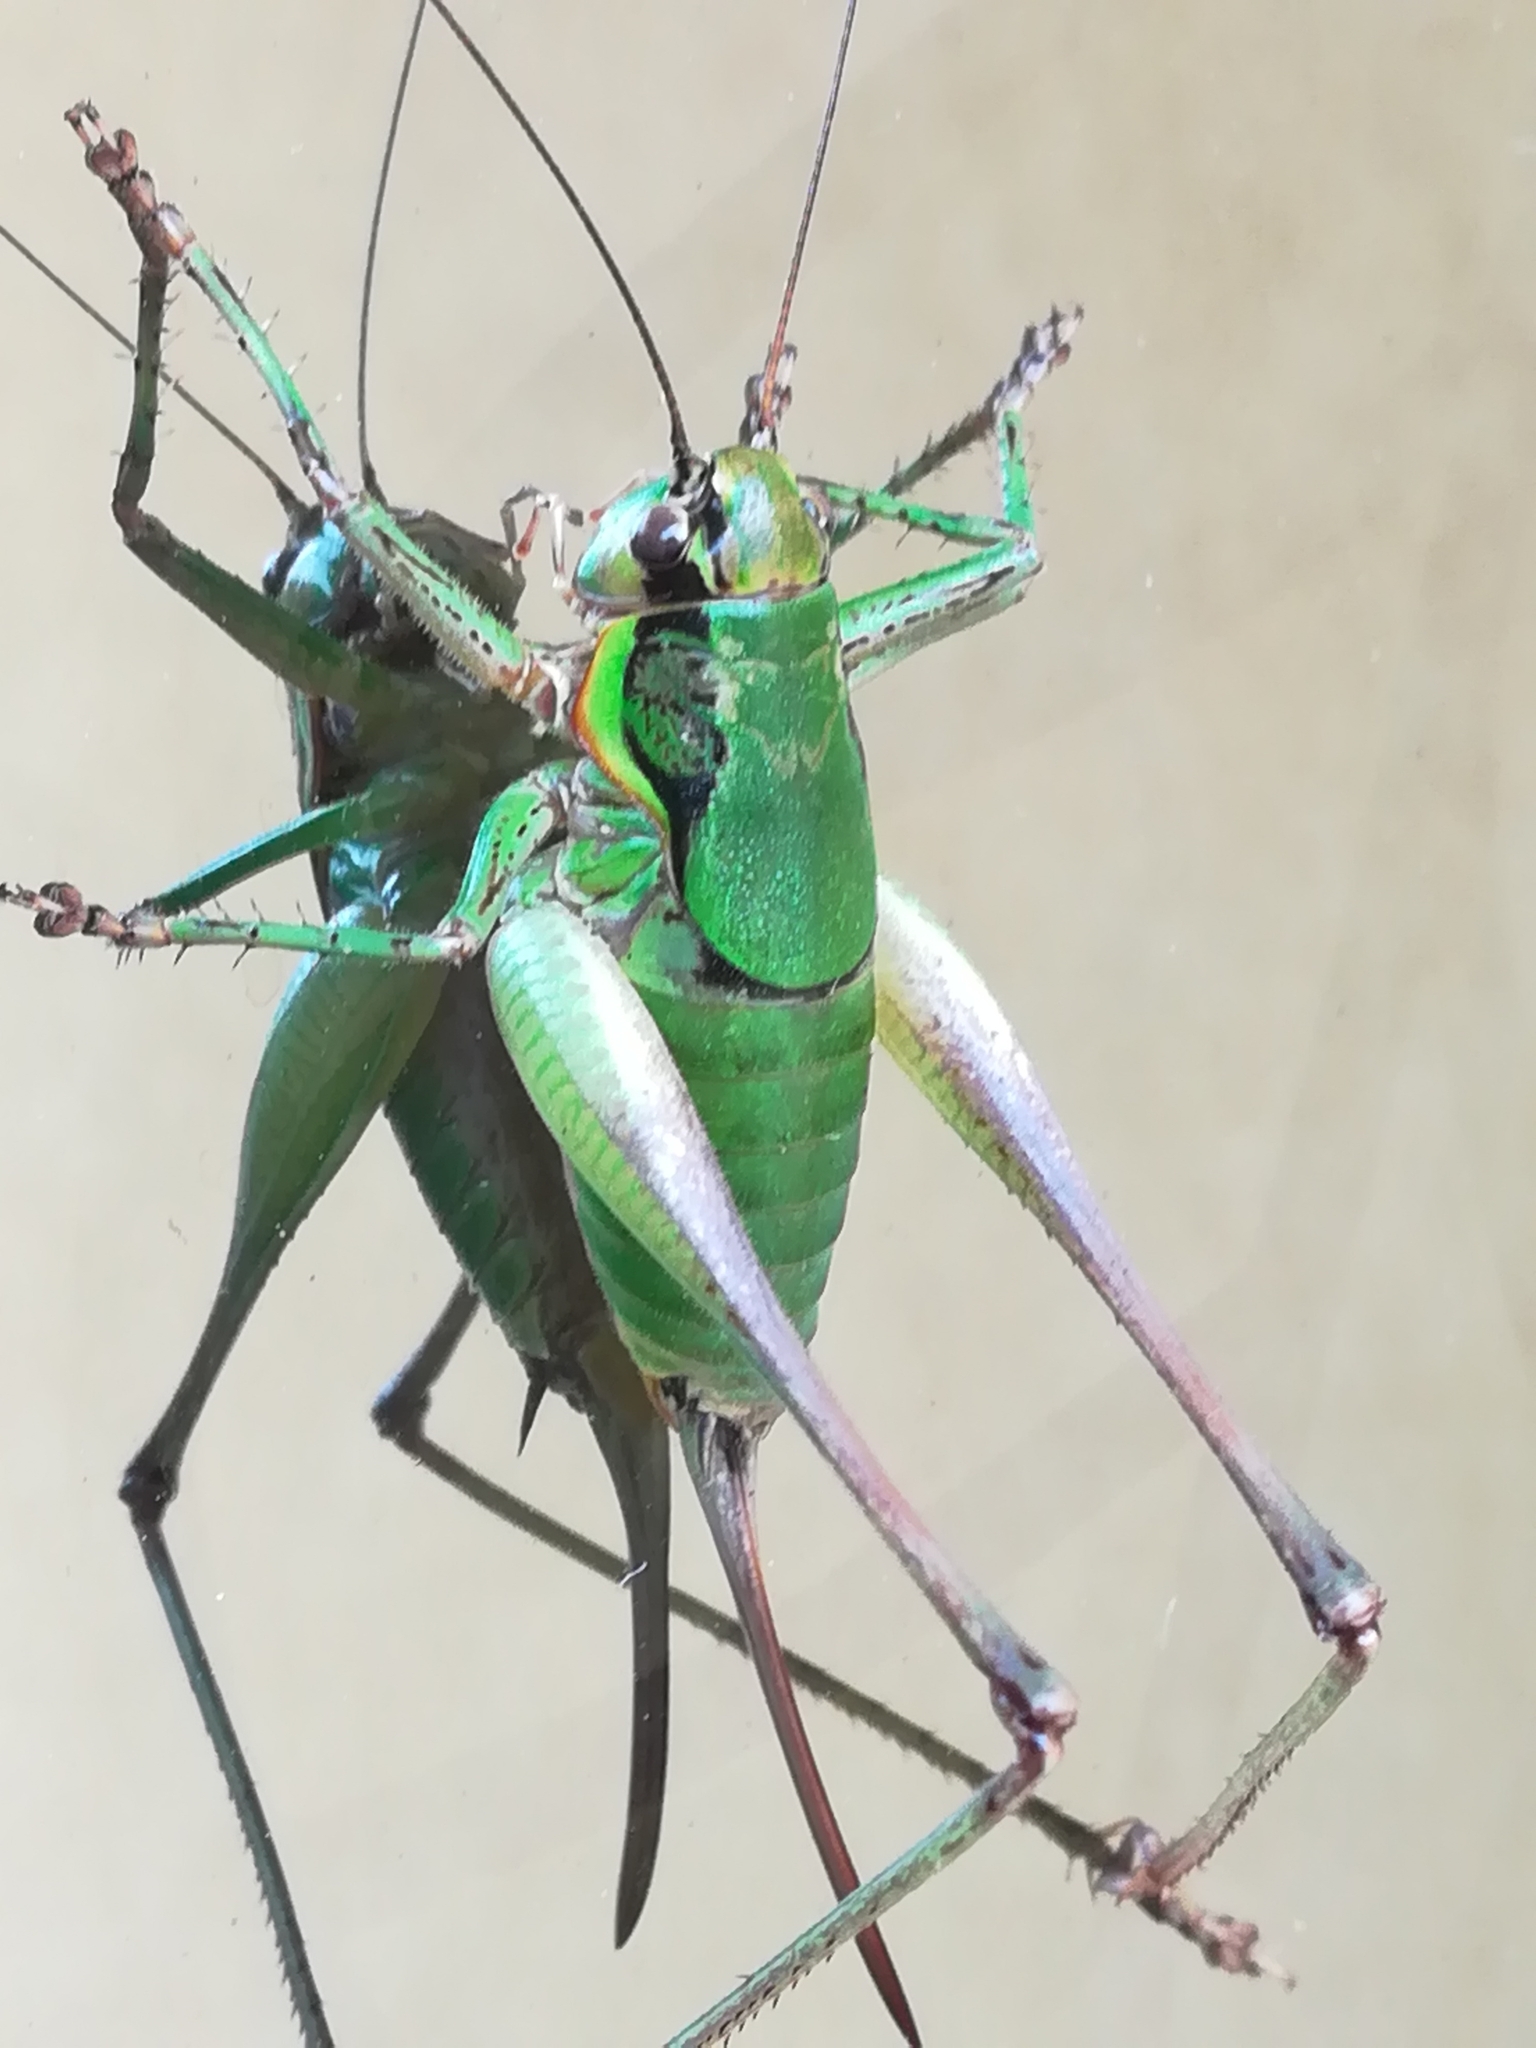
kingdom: Animalia
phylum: Arthropoda
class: Insecta
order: Orthoptera
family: Tettigoniidae
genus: Eupholidoptera
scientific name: Eupholidoptera chabrieri
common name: Chabrier's marbled bush-cricket
